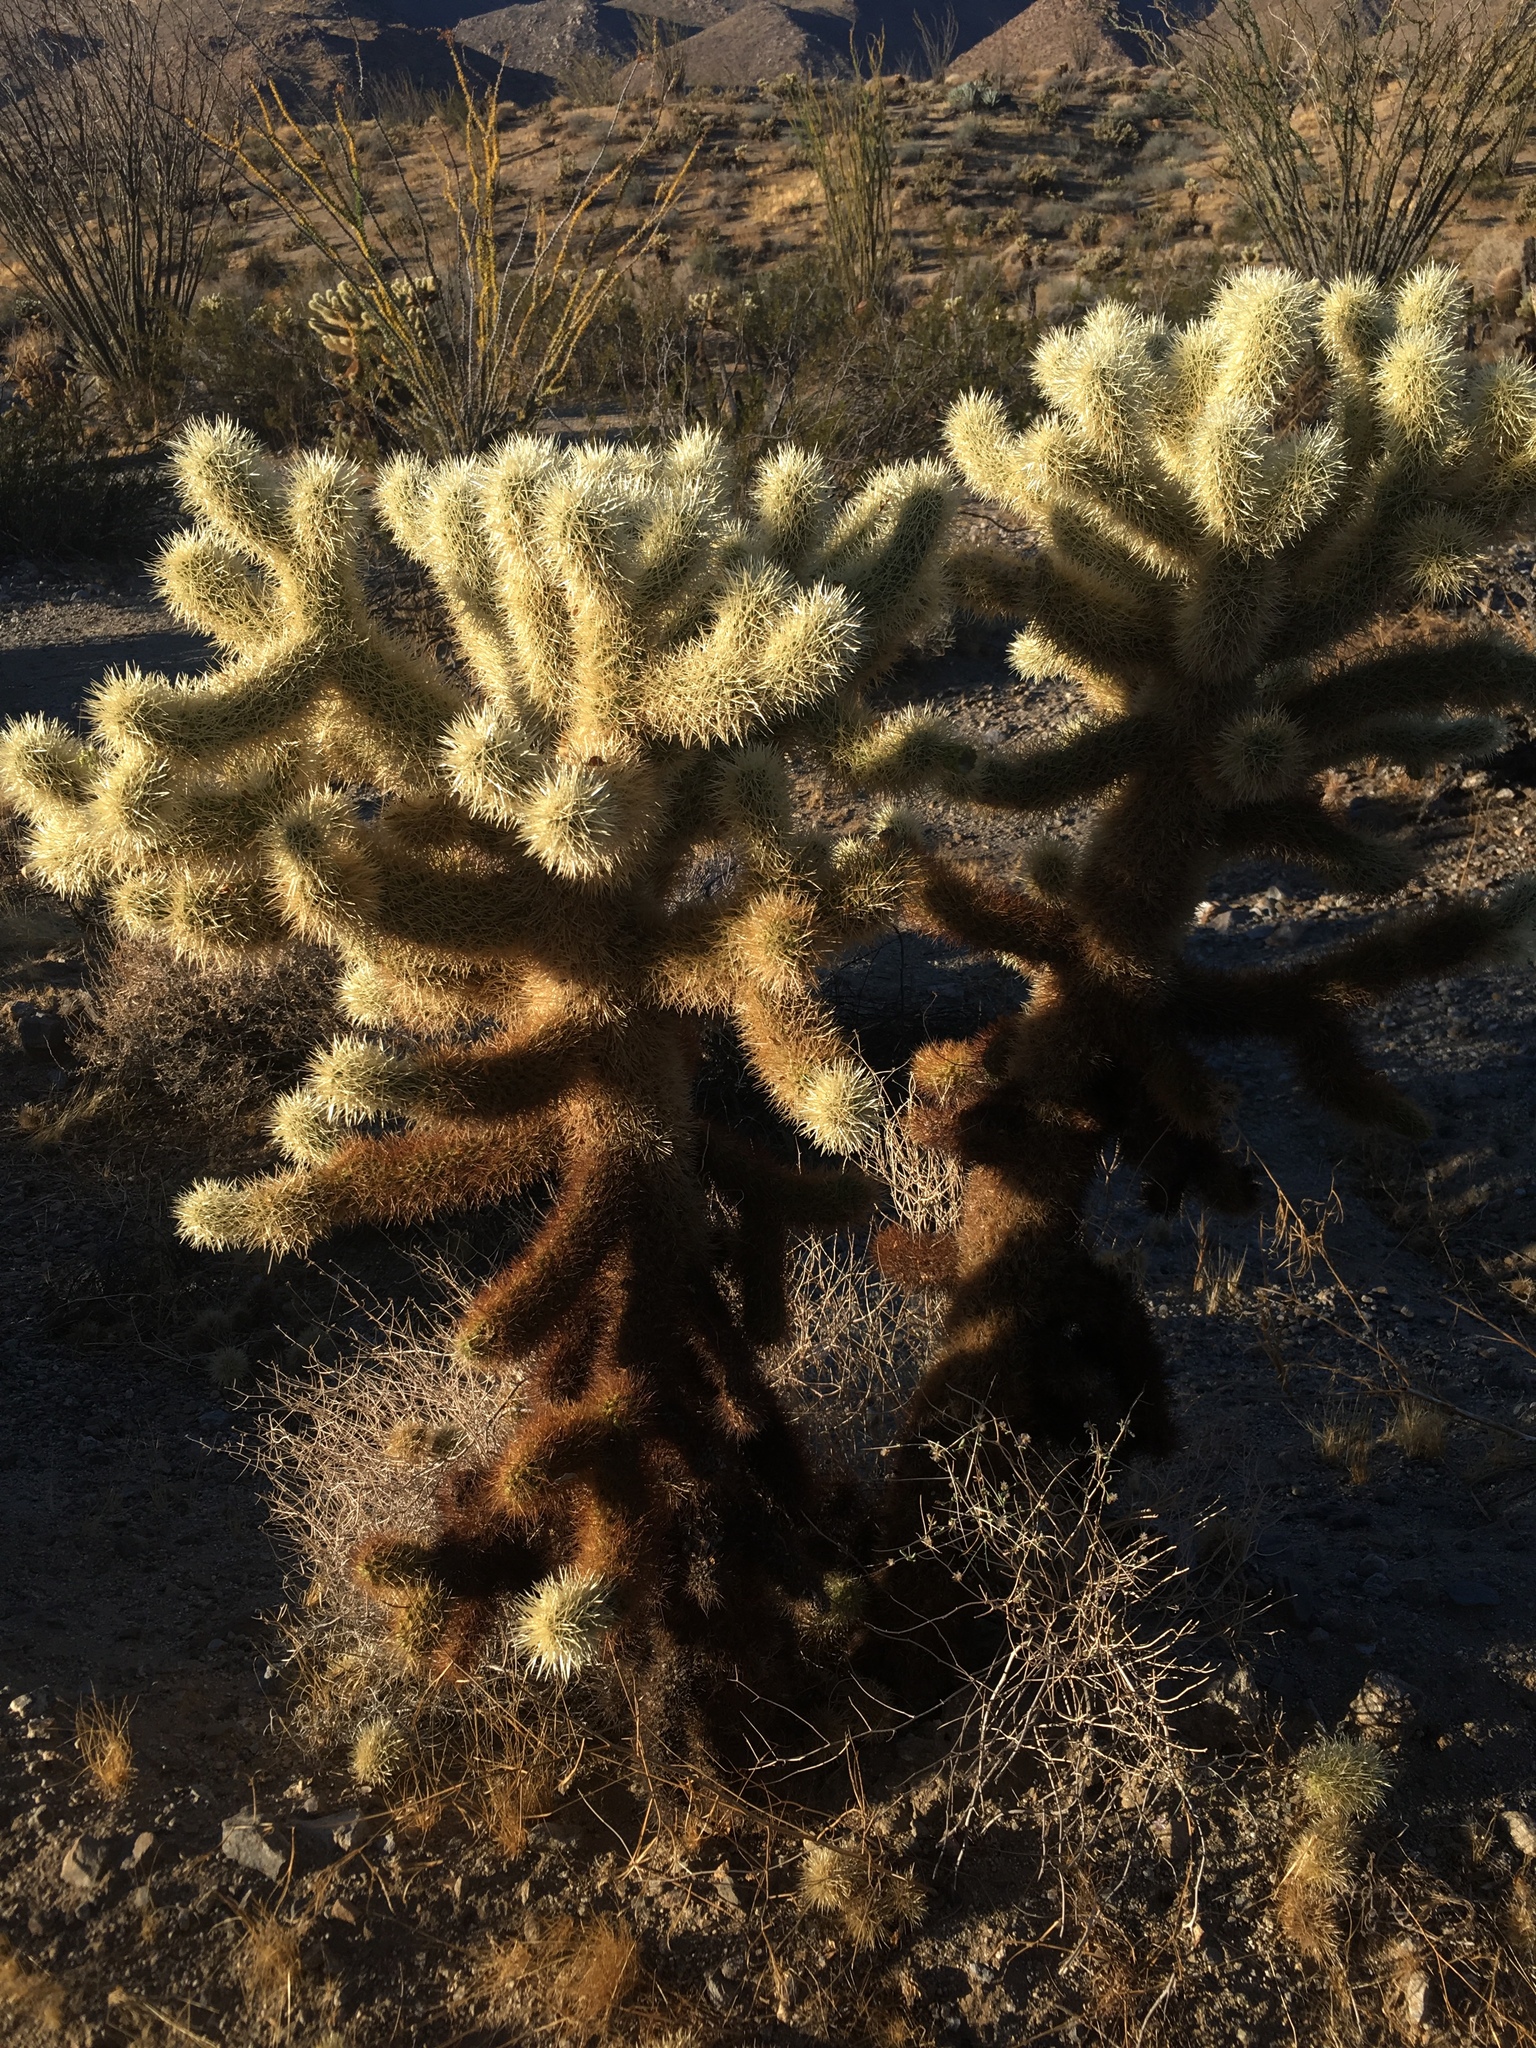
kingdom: Plantae
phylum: Tracheophyta
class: Magnoliopsida
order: Caryophyllales
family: Cactaceae
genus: Cylindropuntia
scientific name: Cylindropuntia fosbergii
